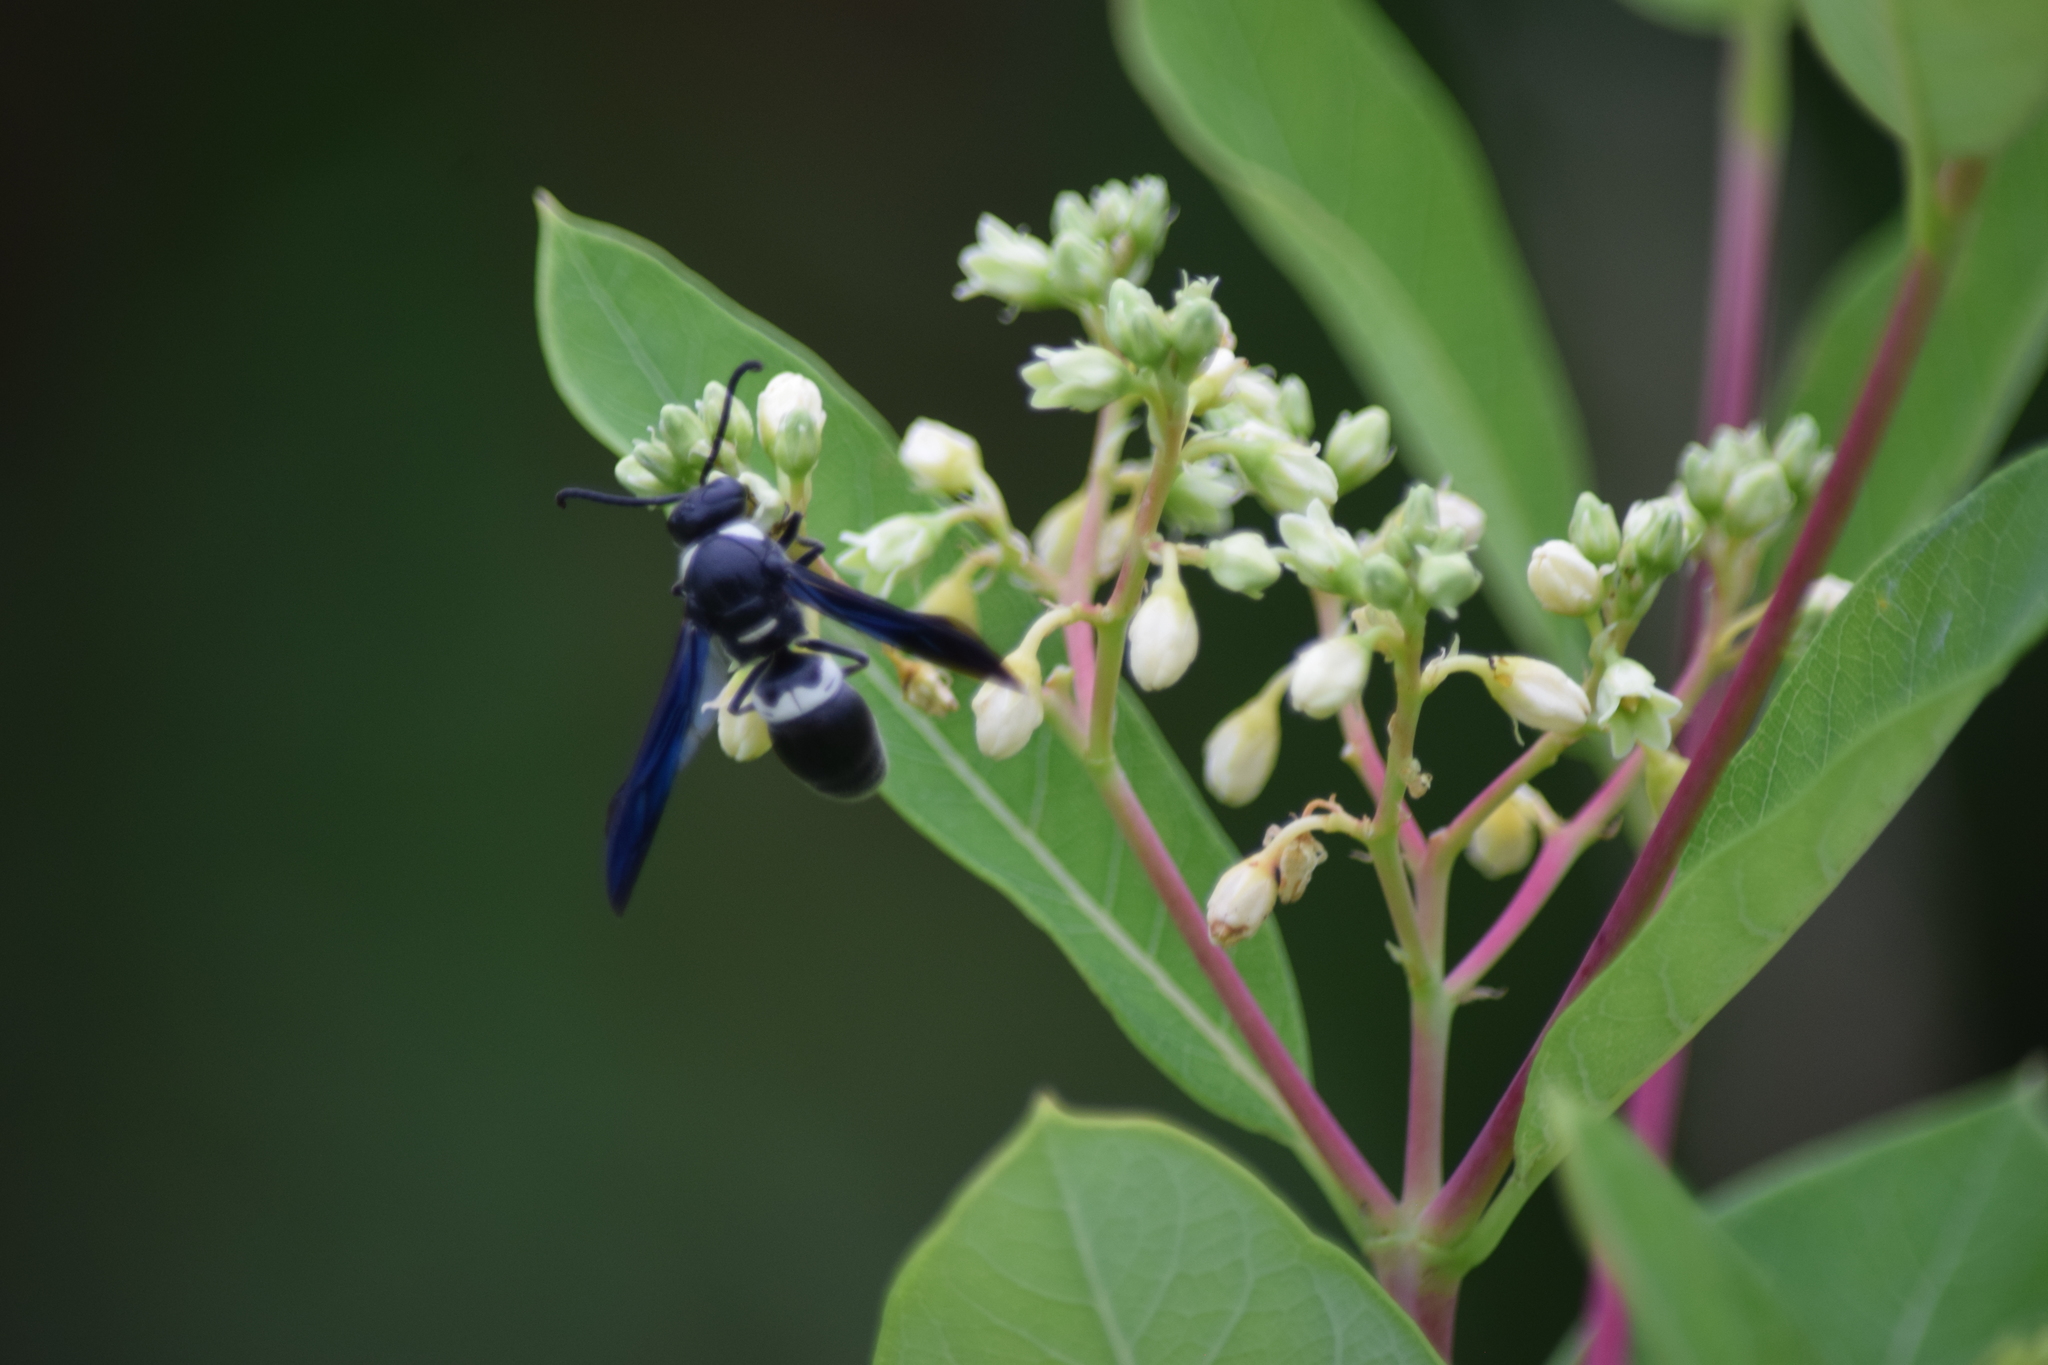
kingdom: Animalia
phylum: Arthropoda
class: Insecta
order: Hymenoptera
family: Eumenidae
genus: Monobia
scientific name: Monobia quadridens
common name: Four-toothed mason wasp
